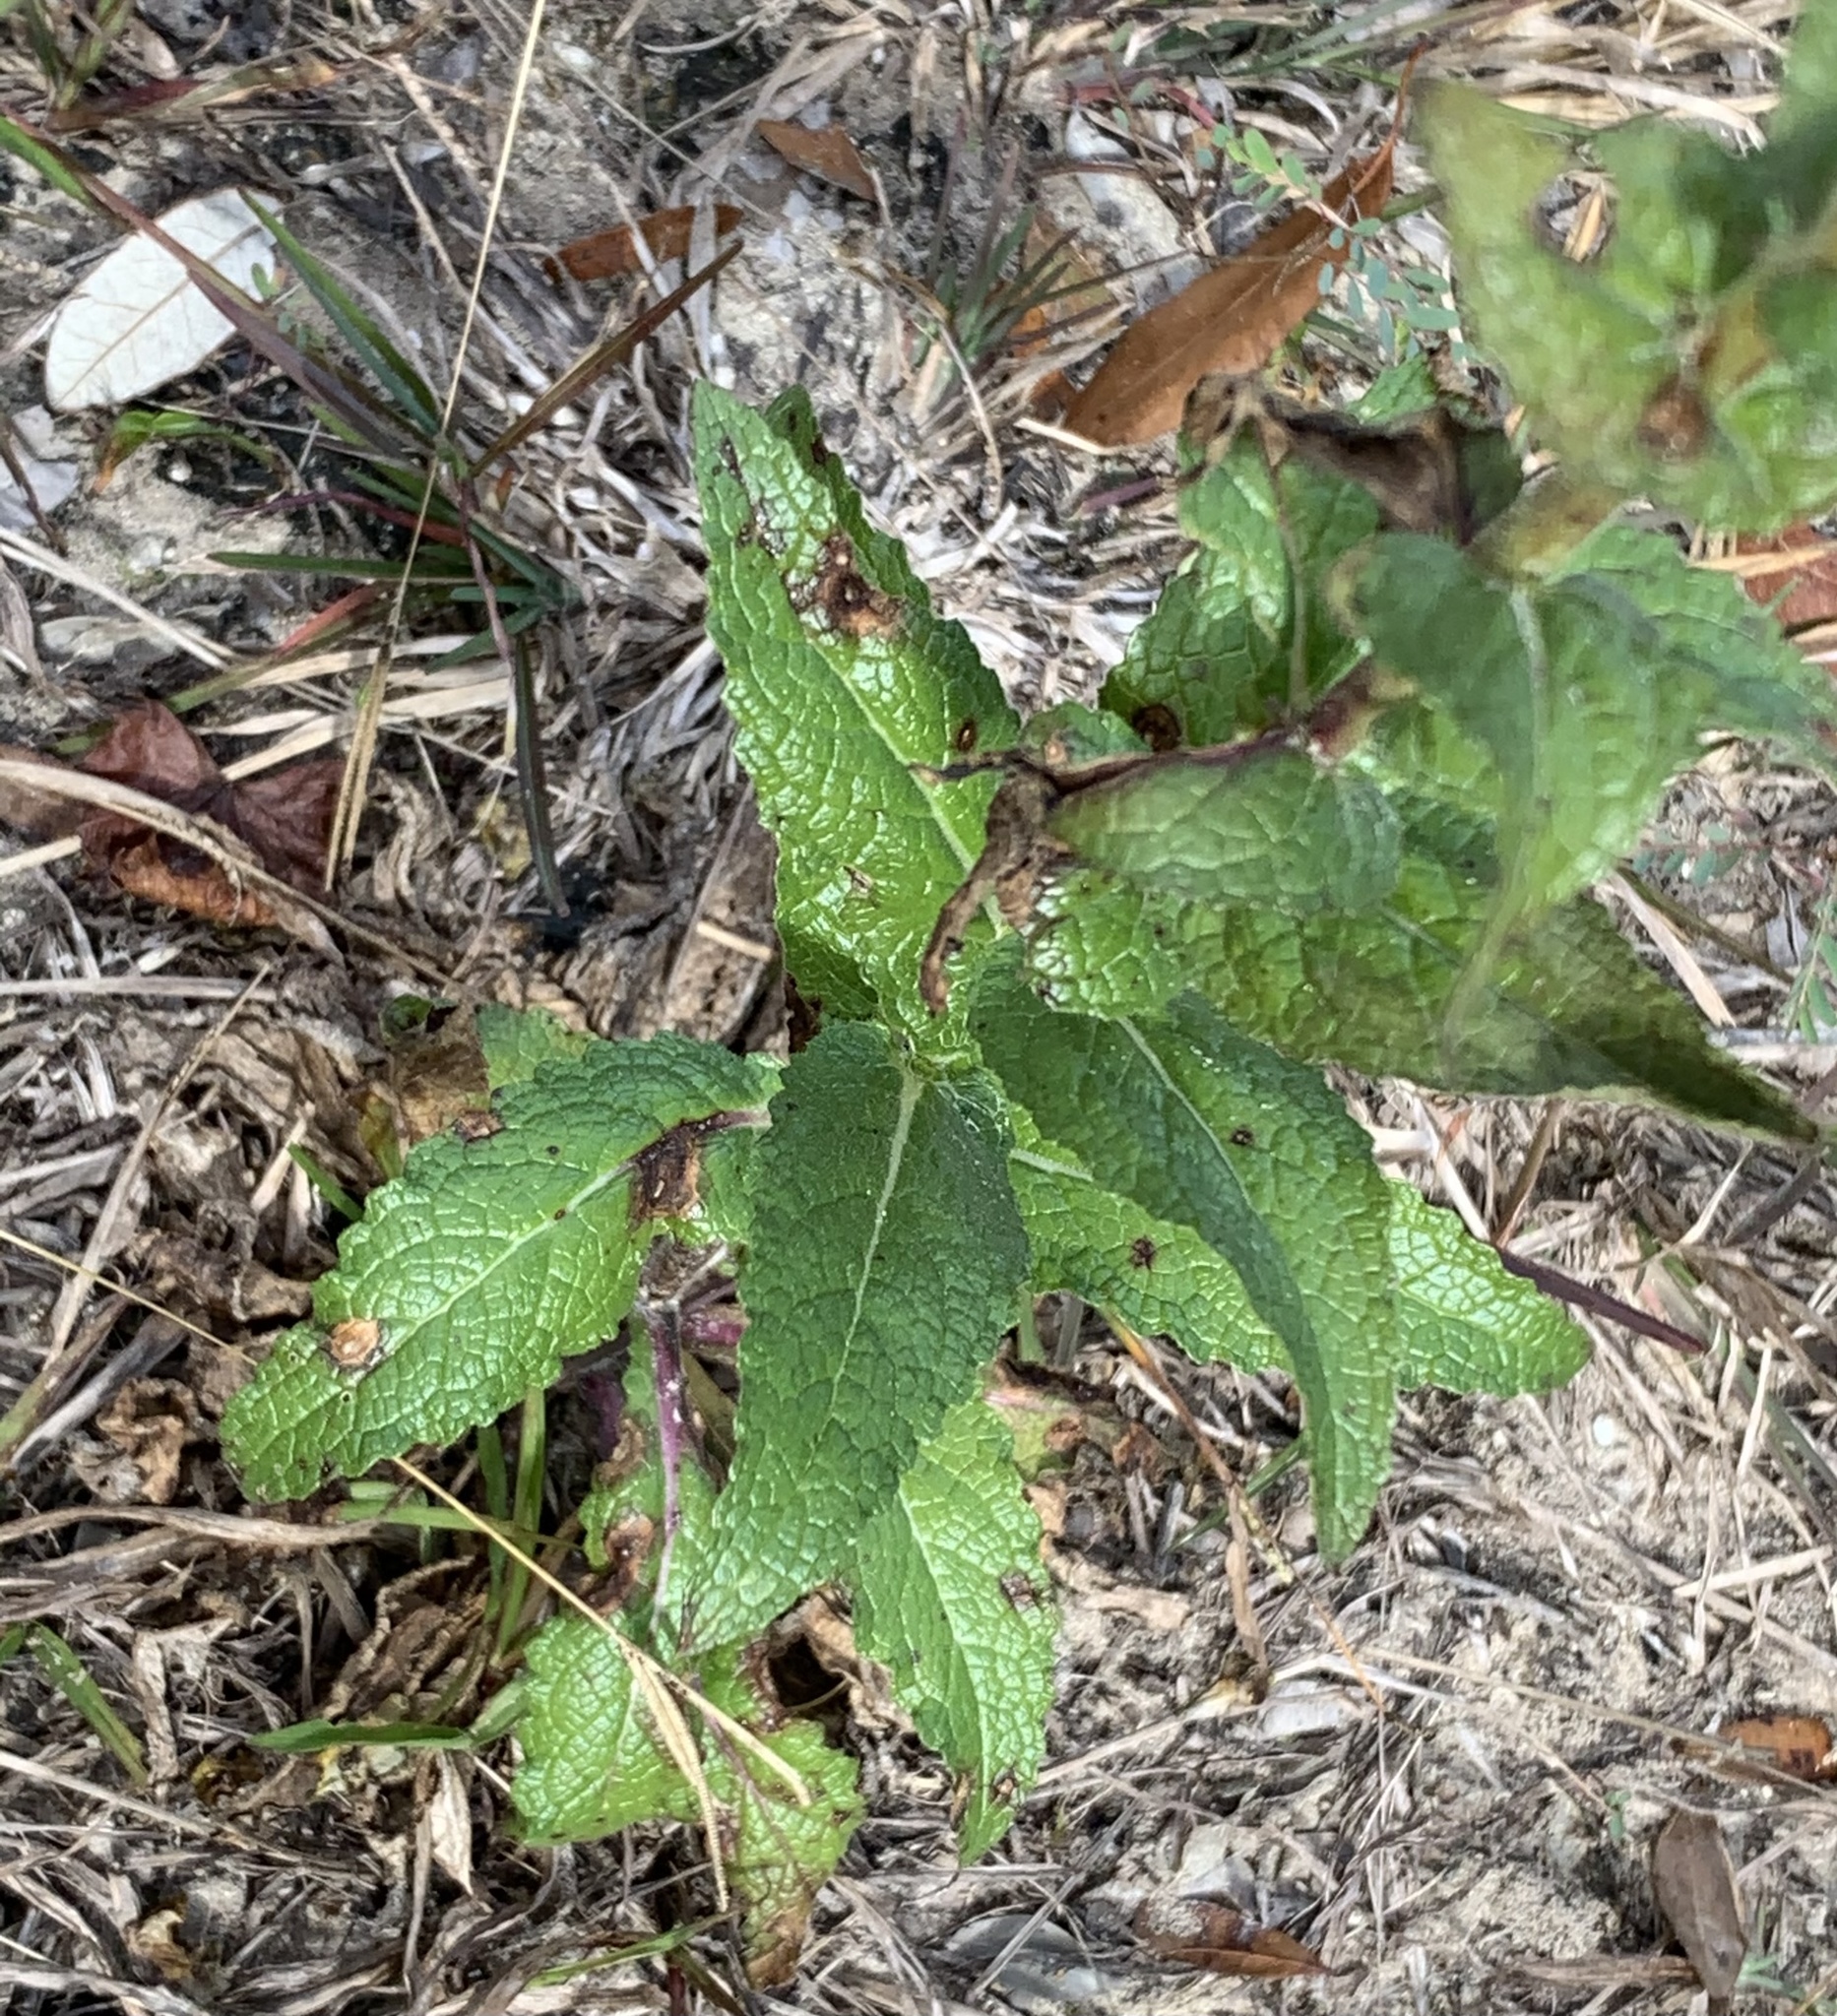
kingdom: Plantae
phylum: Tracheophyta
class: Magnoliopsida
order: Lamiales
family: Scrophulariaceae
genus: Verbascum
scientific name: Verbascum virgatum
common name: Twiggy mullein
